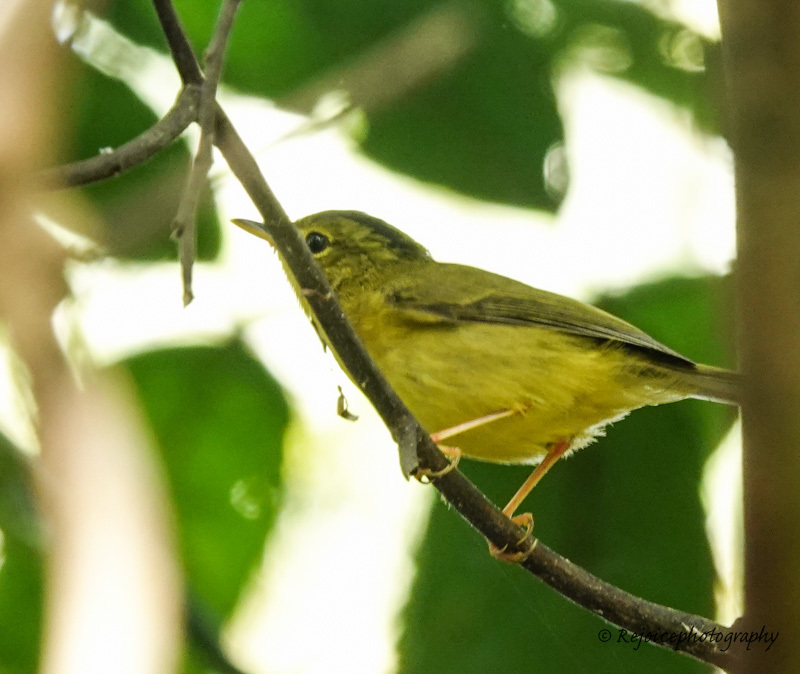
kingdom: Animalia
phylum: Chordata
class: Aves
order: Passeriformes
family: Phylloscopidae
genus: Seicercus
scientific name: Seicercus burkii
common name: Green-crowned warbler
